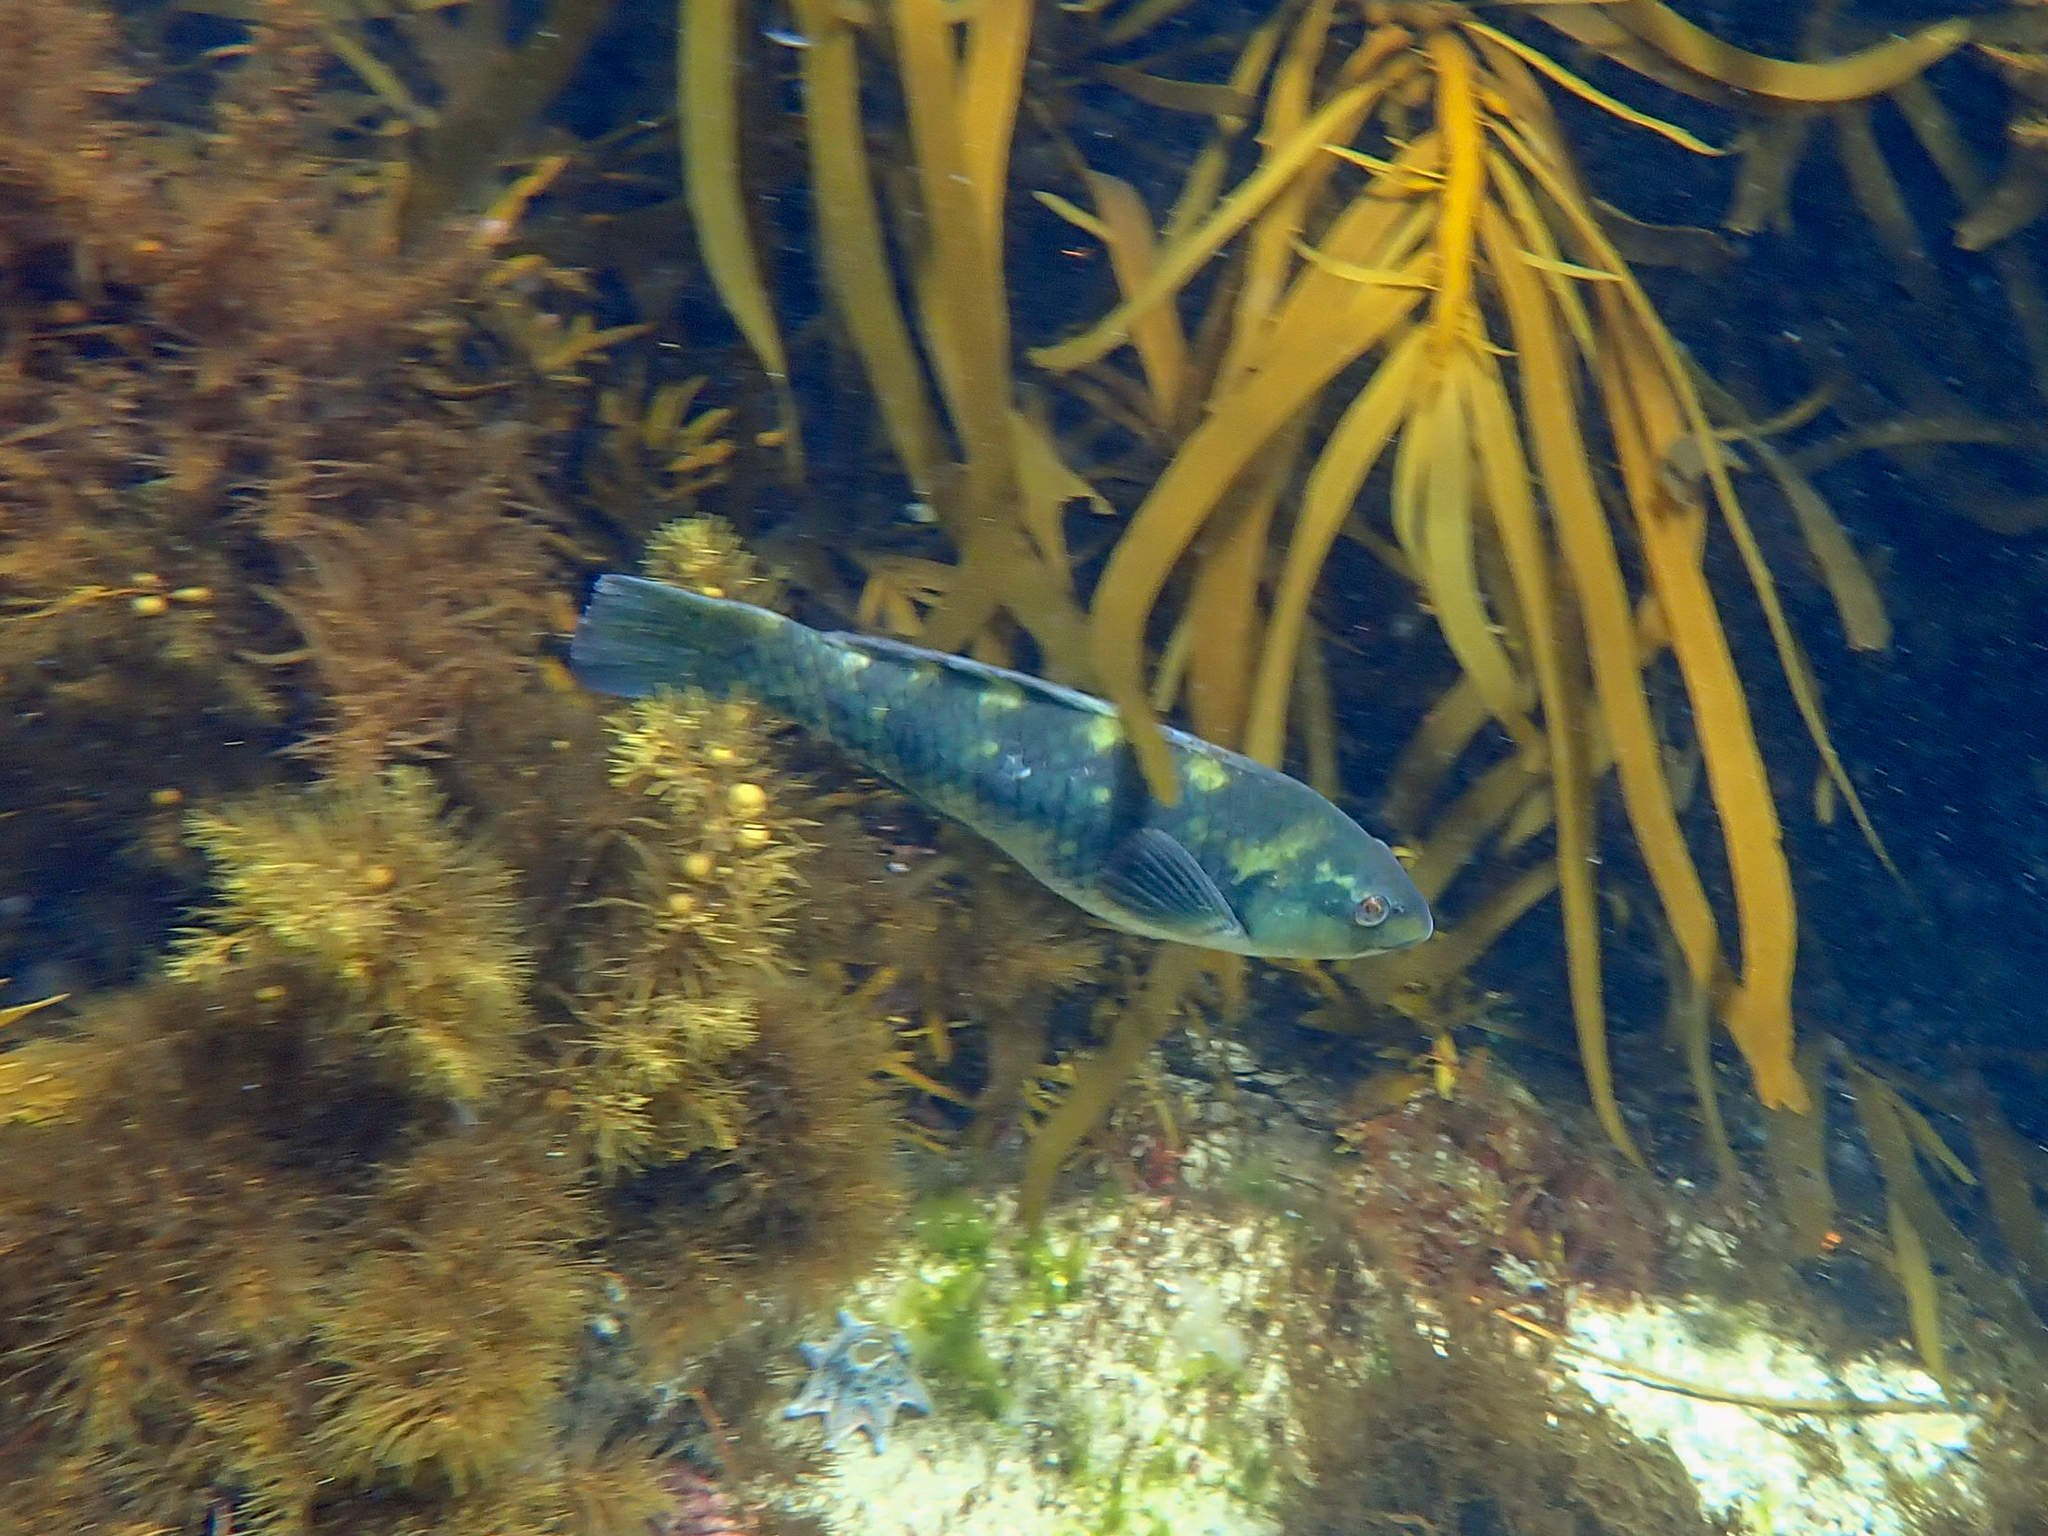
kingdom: Animalia
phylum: Chordata
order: Perciformes
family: Labridae
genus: Notolabrus
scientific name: Notolabrus fucicola
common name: Banded parrotfish
